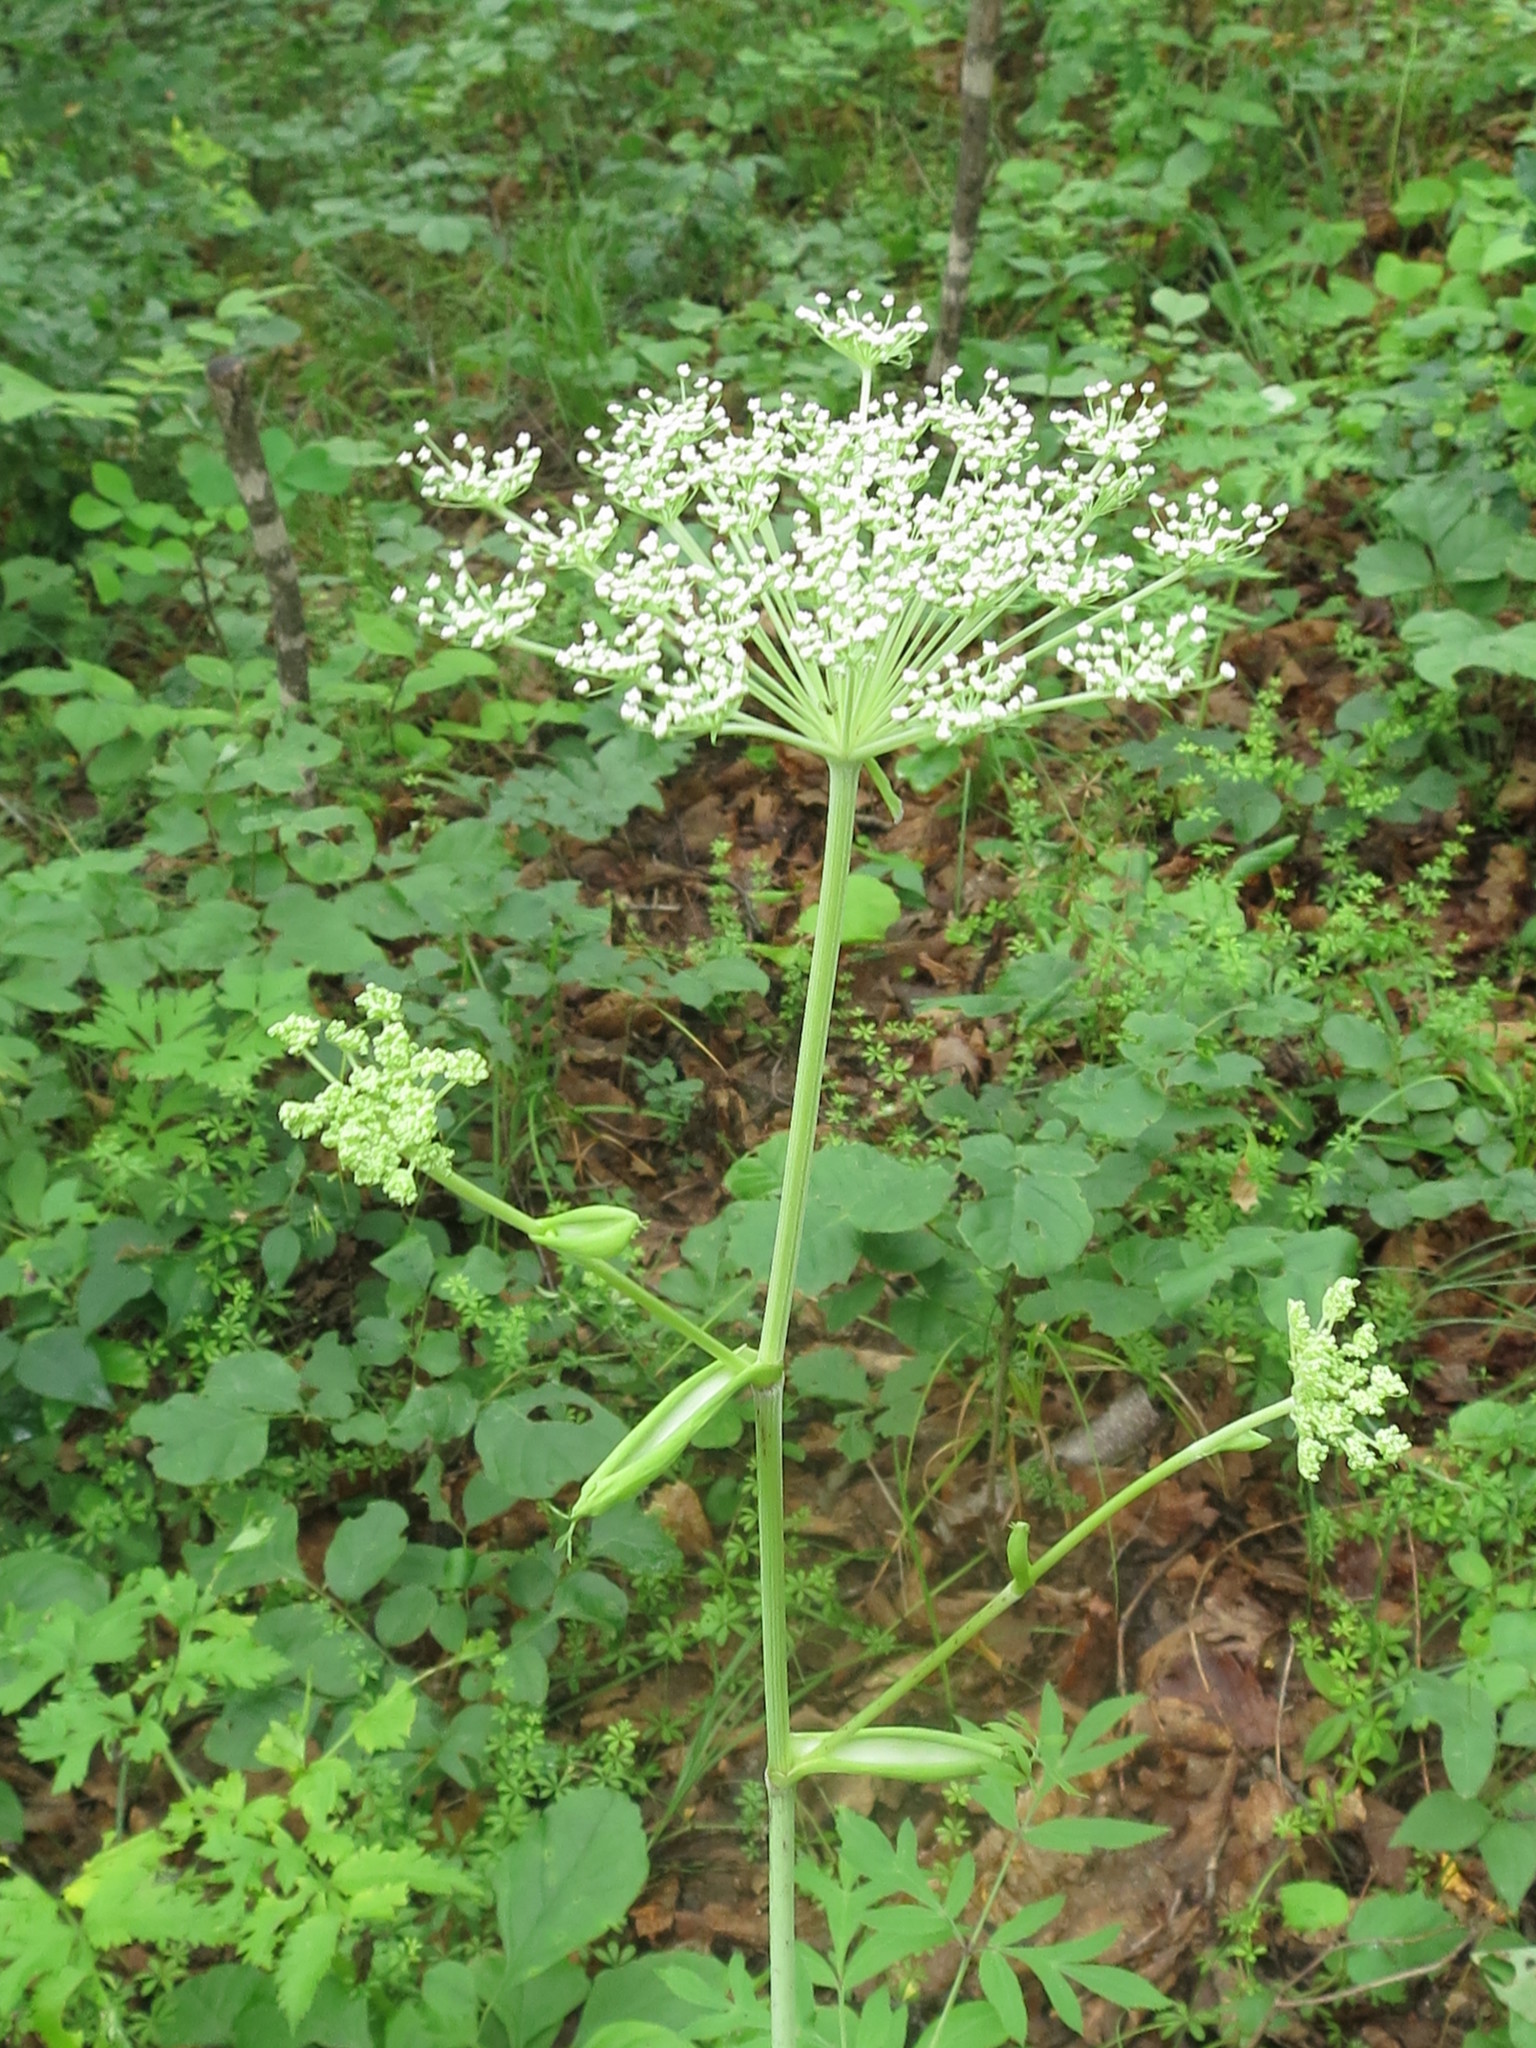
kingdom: Plantae
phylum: Tracheophyta
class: Magnoliopsida
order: Apiales
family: Apiaceae
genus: Angelica
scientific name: Angelica cincta
